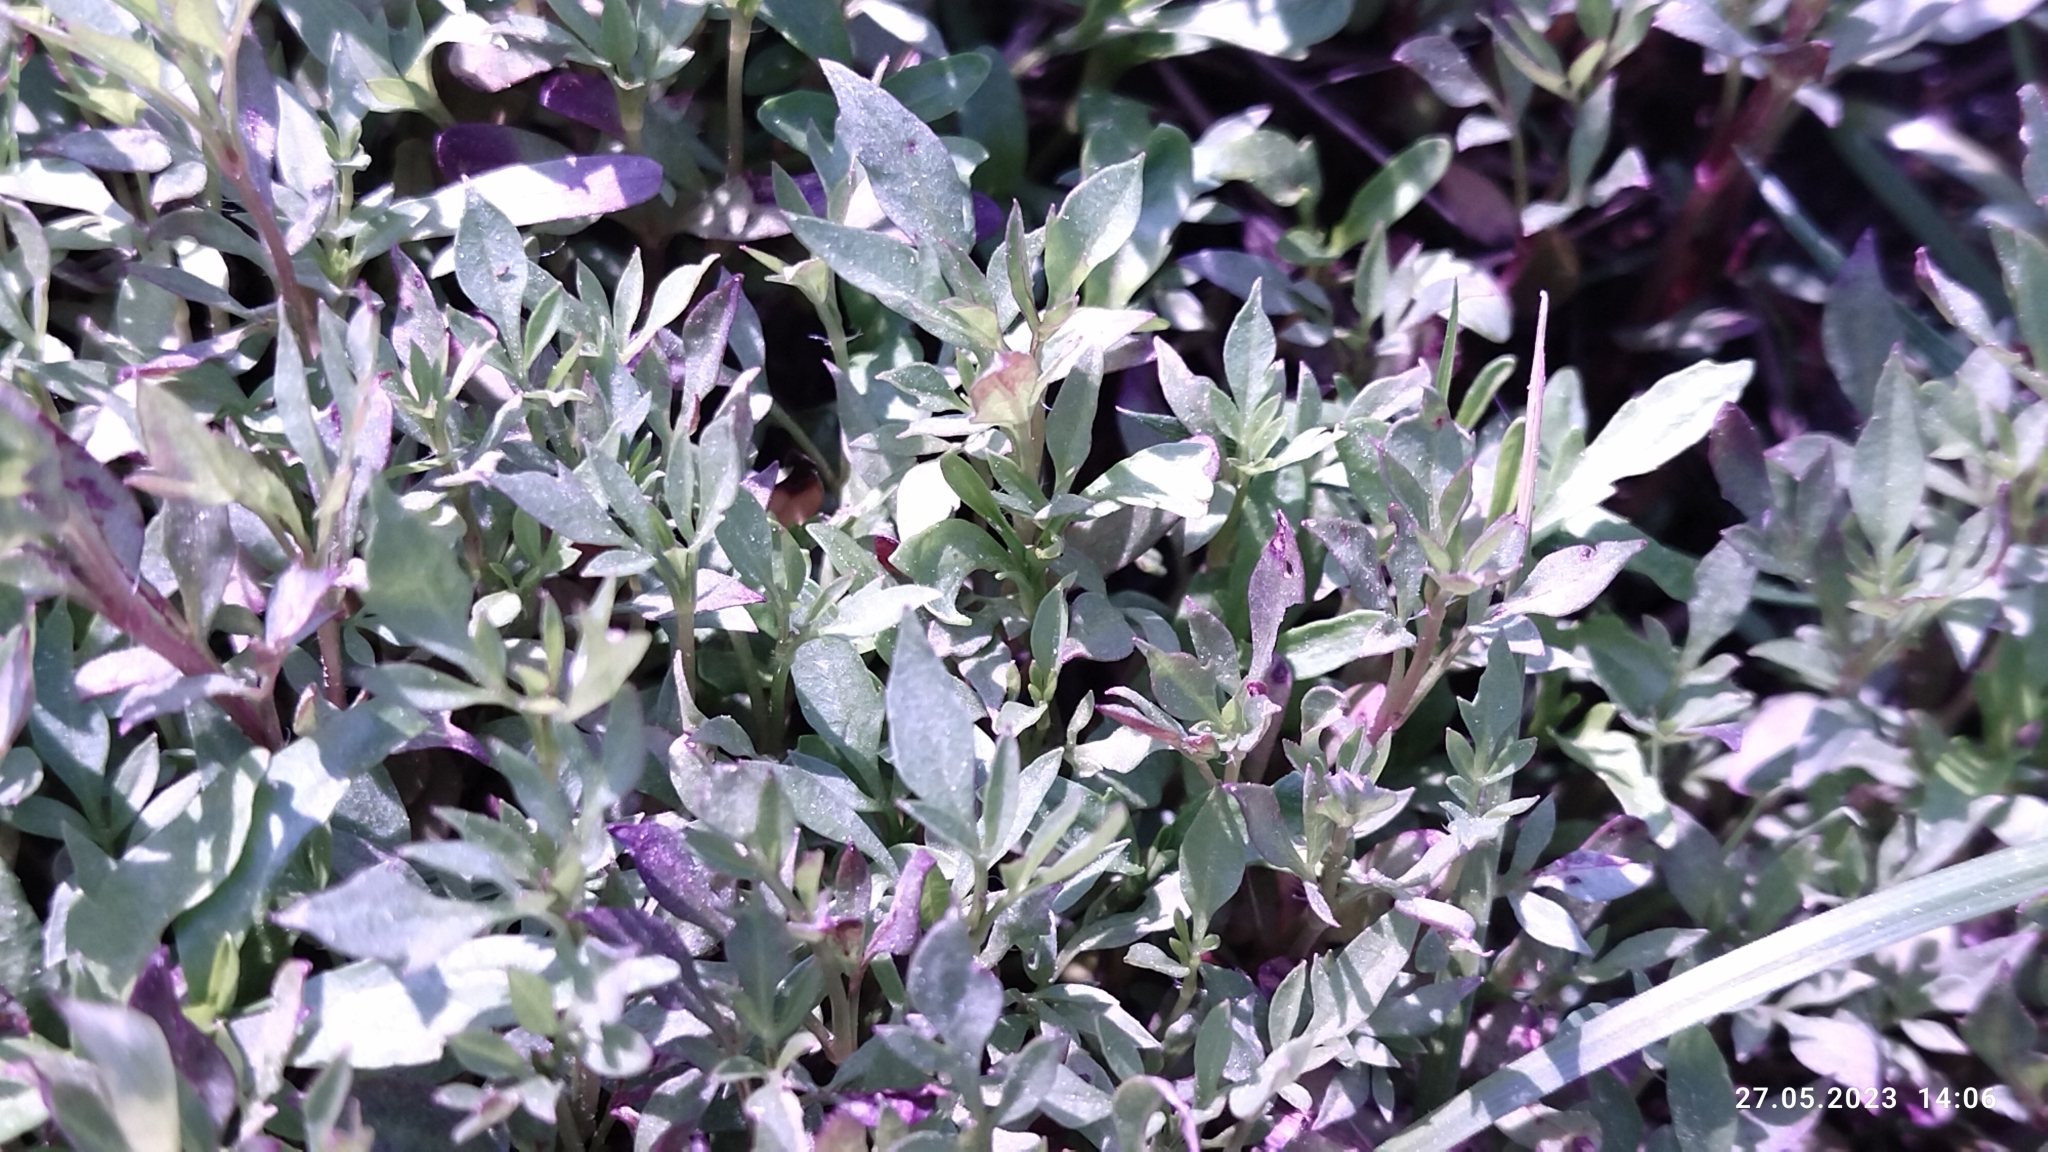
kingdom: Plantae
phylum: Tracheophyta
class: Magnoliopsida
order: Asterales
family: Asteraceae
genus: Bidens
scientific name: Bidens frondosa
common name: Beggarticks
